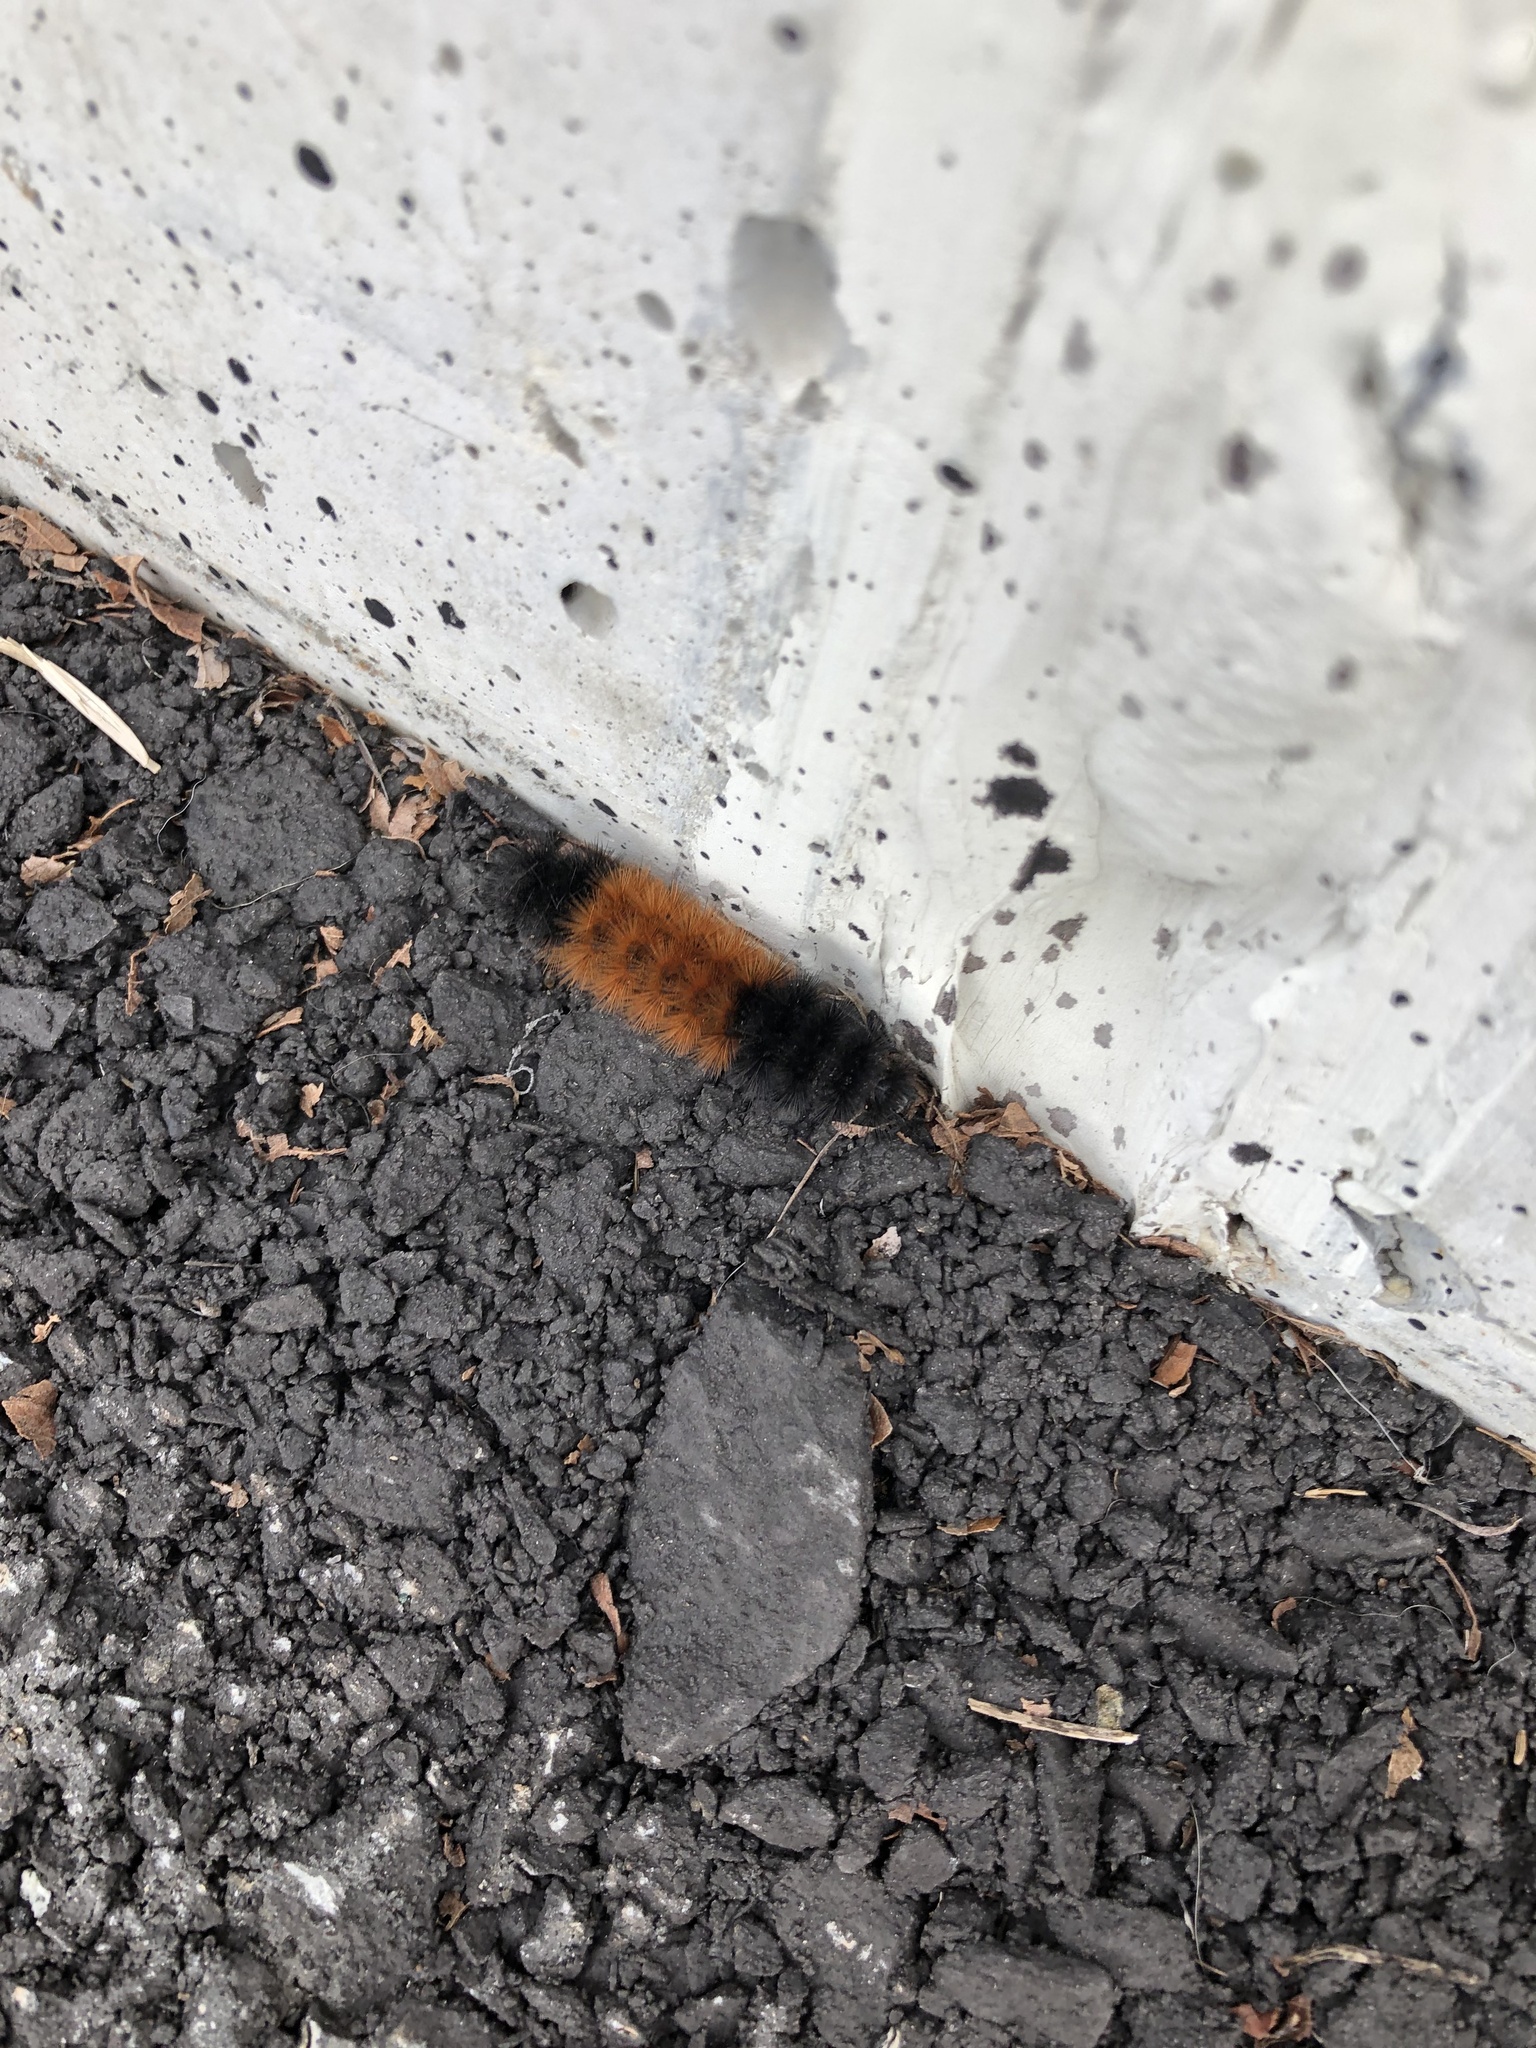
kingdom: Animalia
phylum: Arthropoda
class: Insecta
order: Lepidoptera
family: Erebidae
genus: Pyrrharctia
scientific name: Pyrrharctia isabella
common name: Isabella tiger moth
